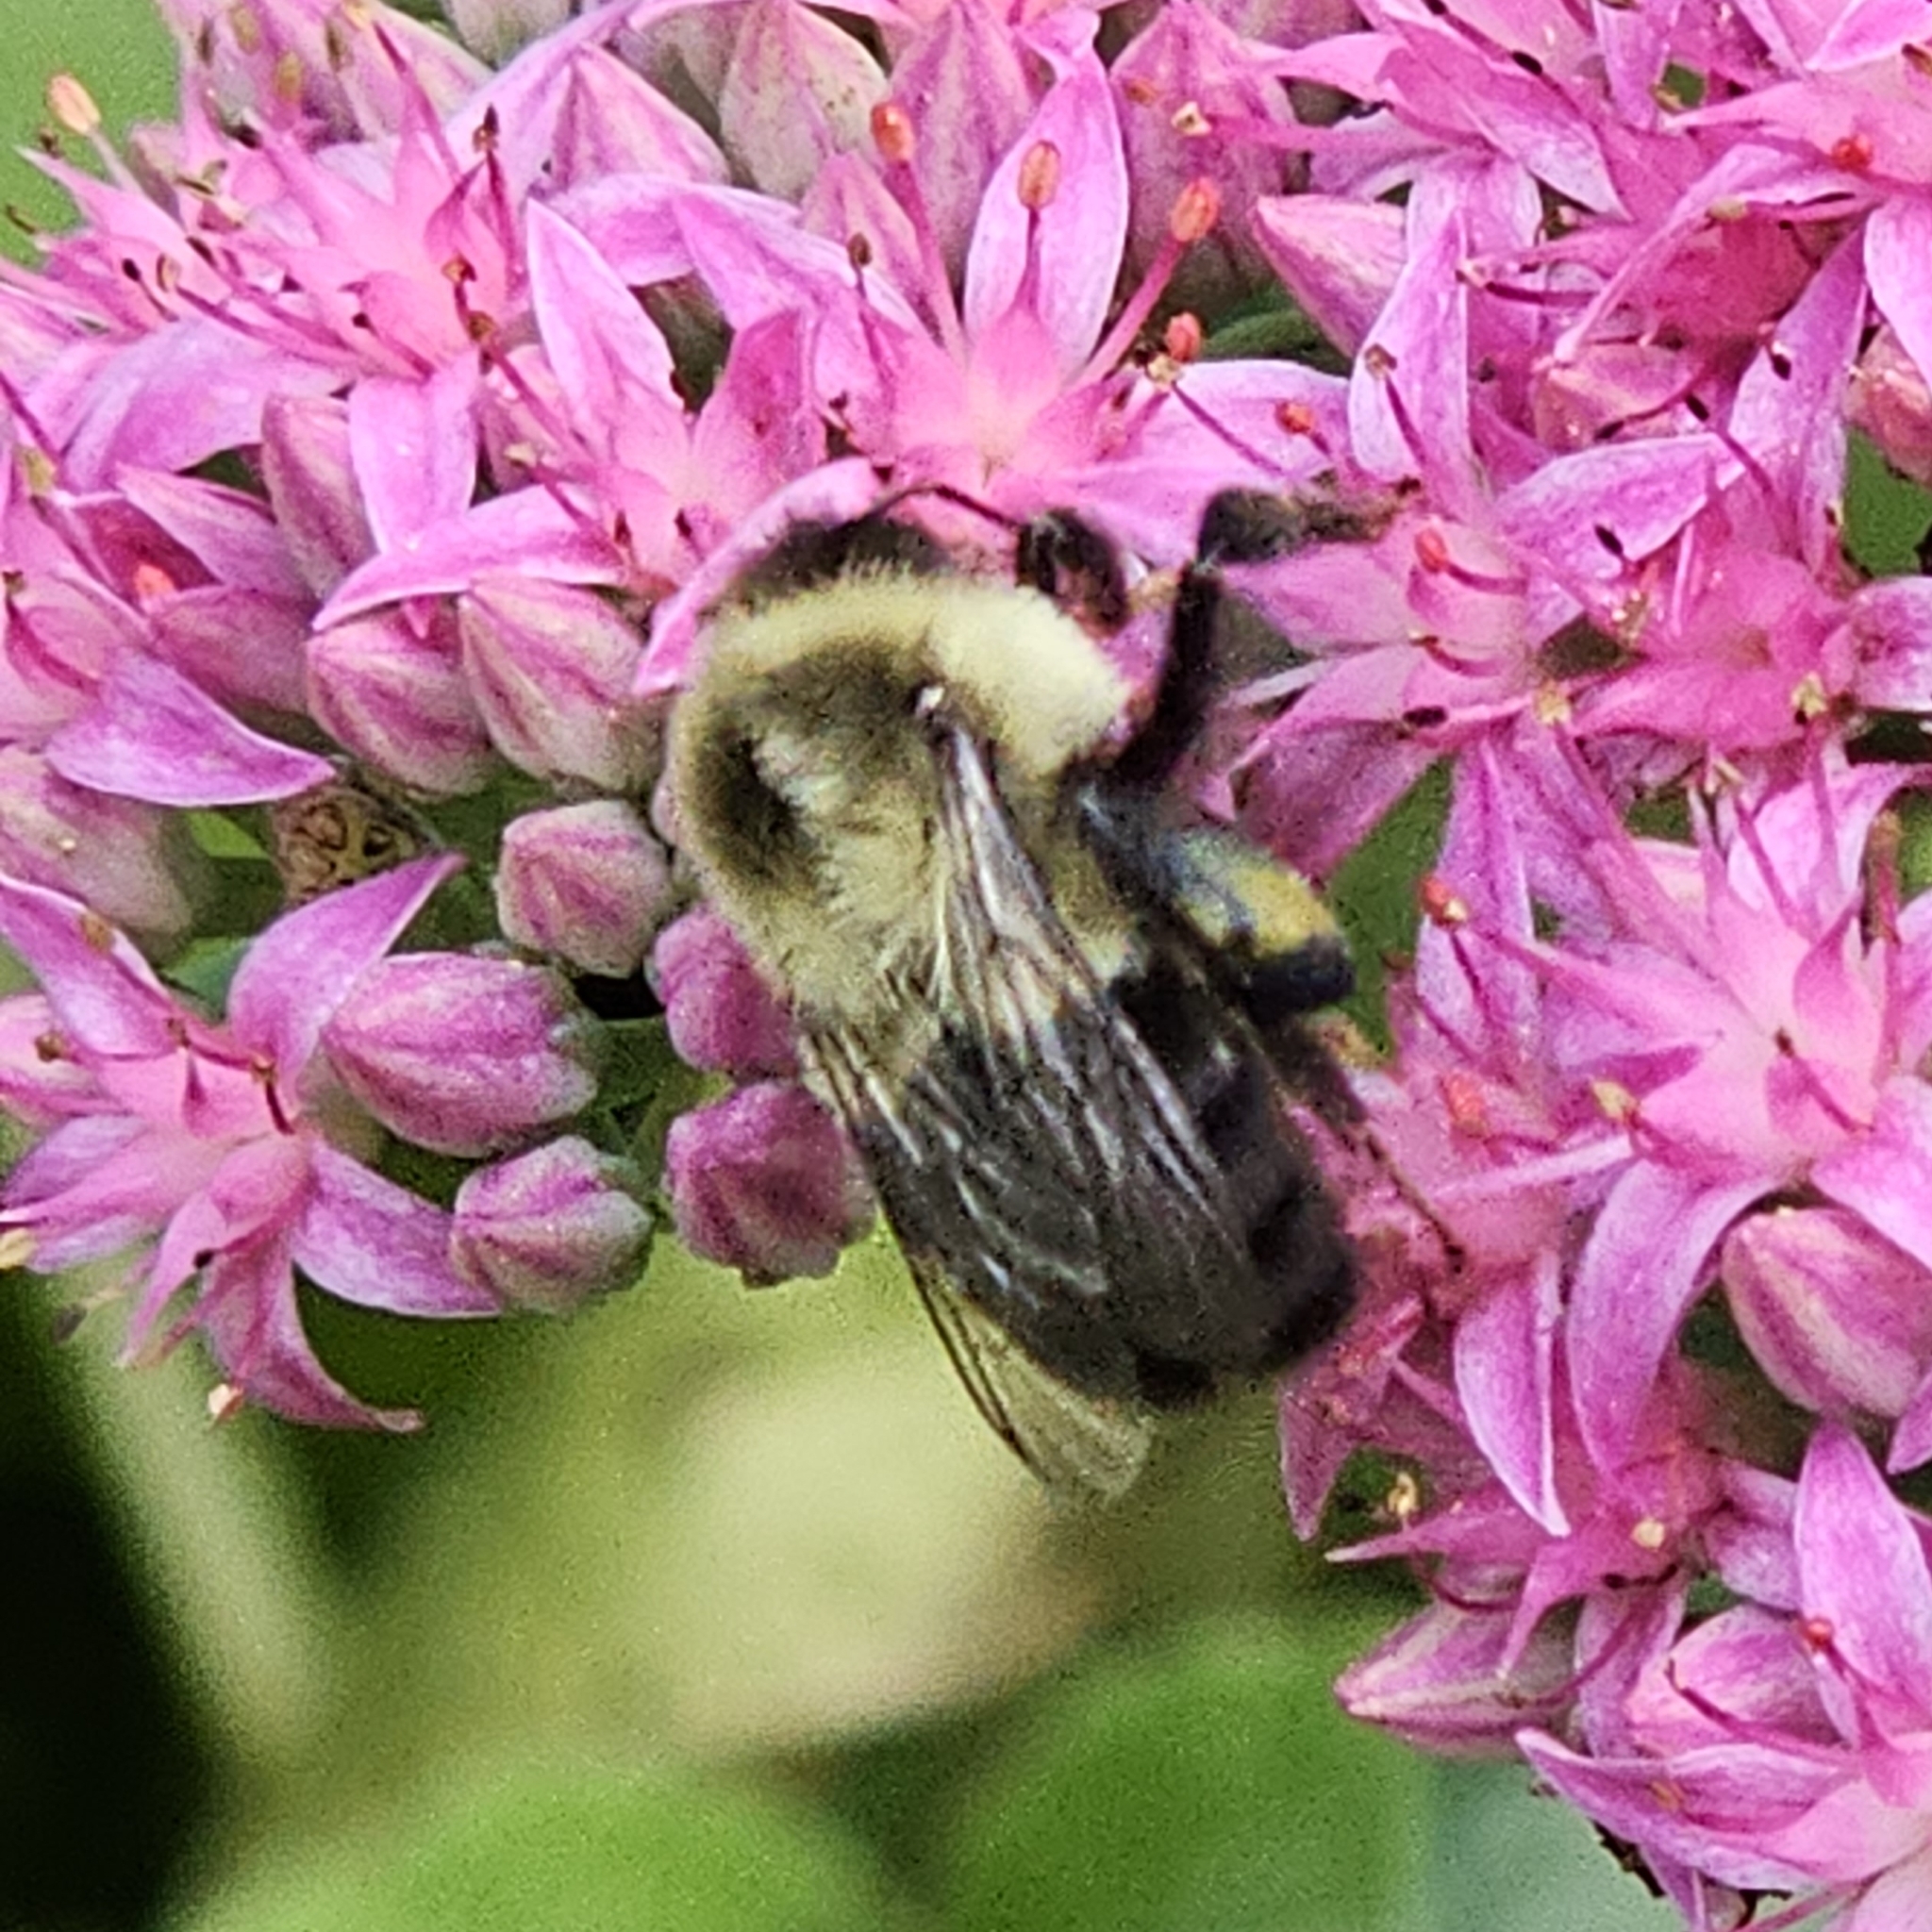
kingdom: Animalia
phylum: Arthropoda
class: Insecta
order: Hymenoptera
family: Apidae
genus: Bombus
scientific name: Bombus impatiens
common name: Common eastern bumble bee
